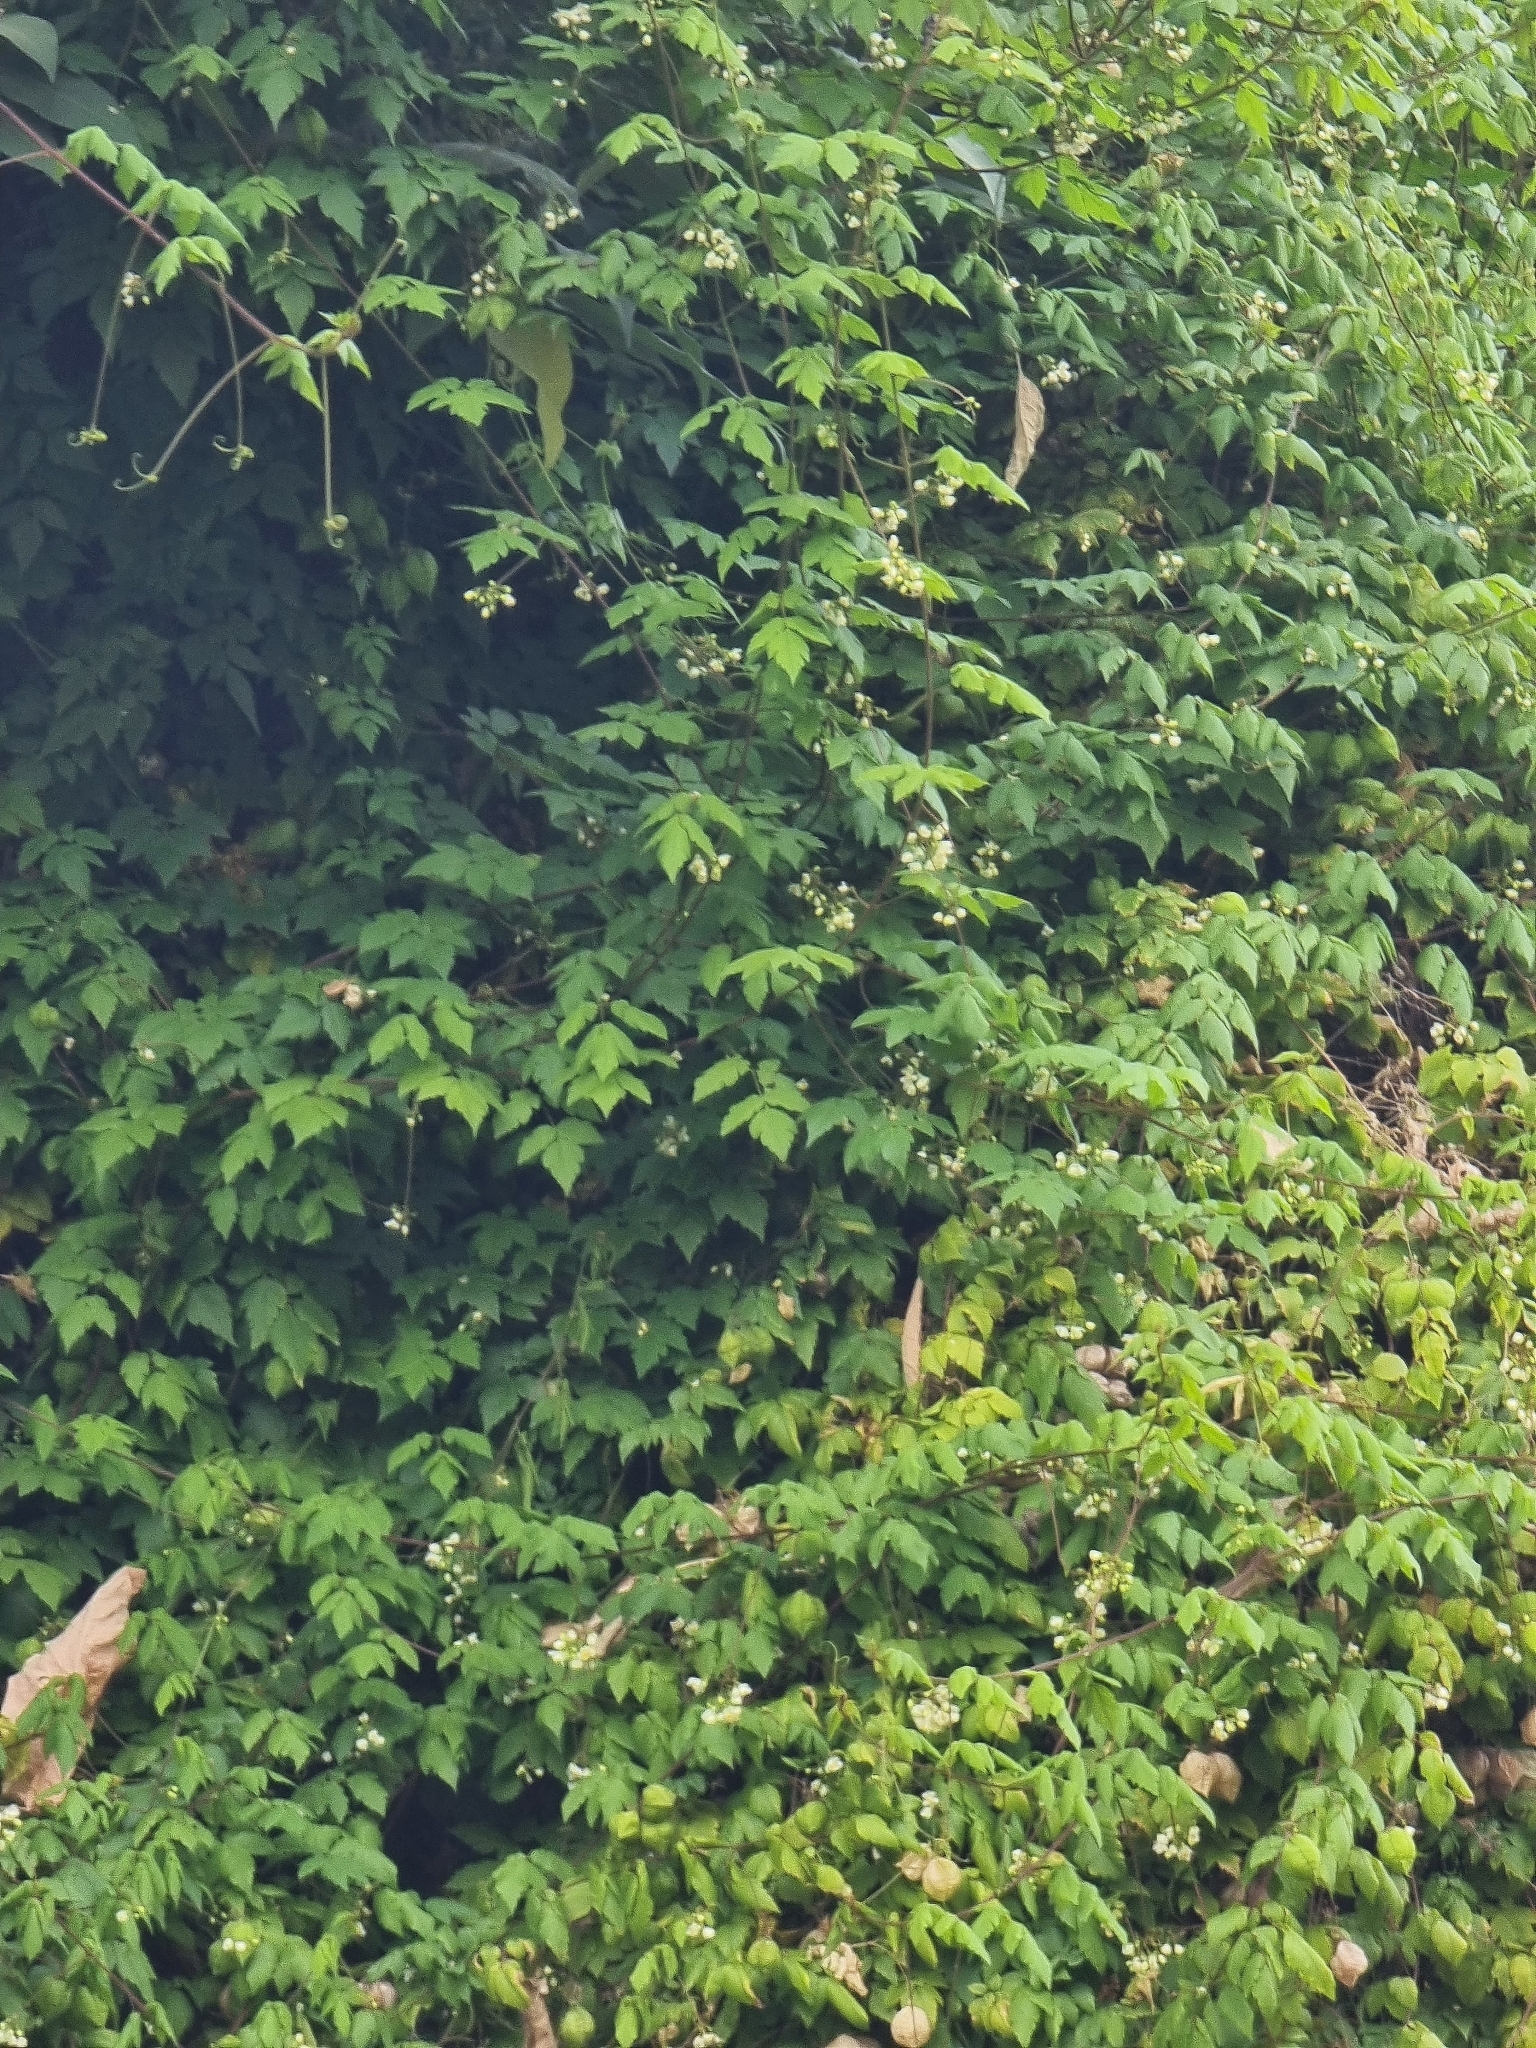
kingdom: Plantae
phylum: Tracheophyta
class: Magnoliopsida
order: Sapindales
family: Sapindaceae
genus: Cardiospermum
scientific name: Cardiospermum grandiflorum
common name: Balloon vine
